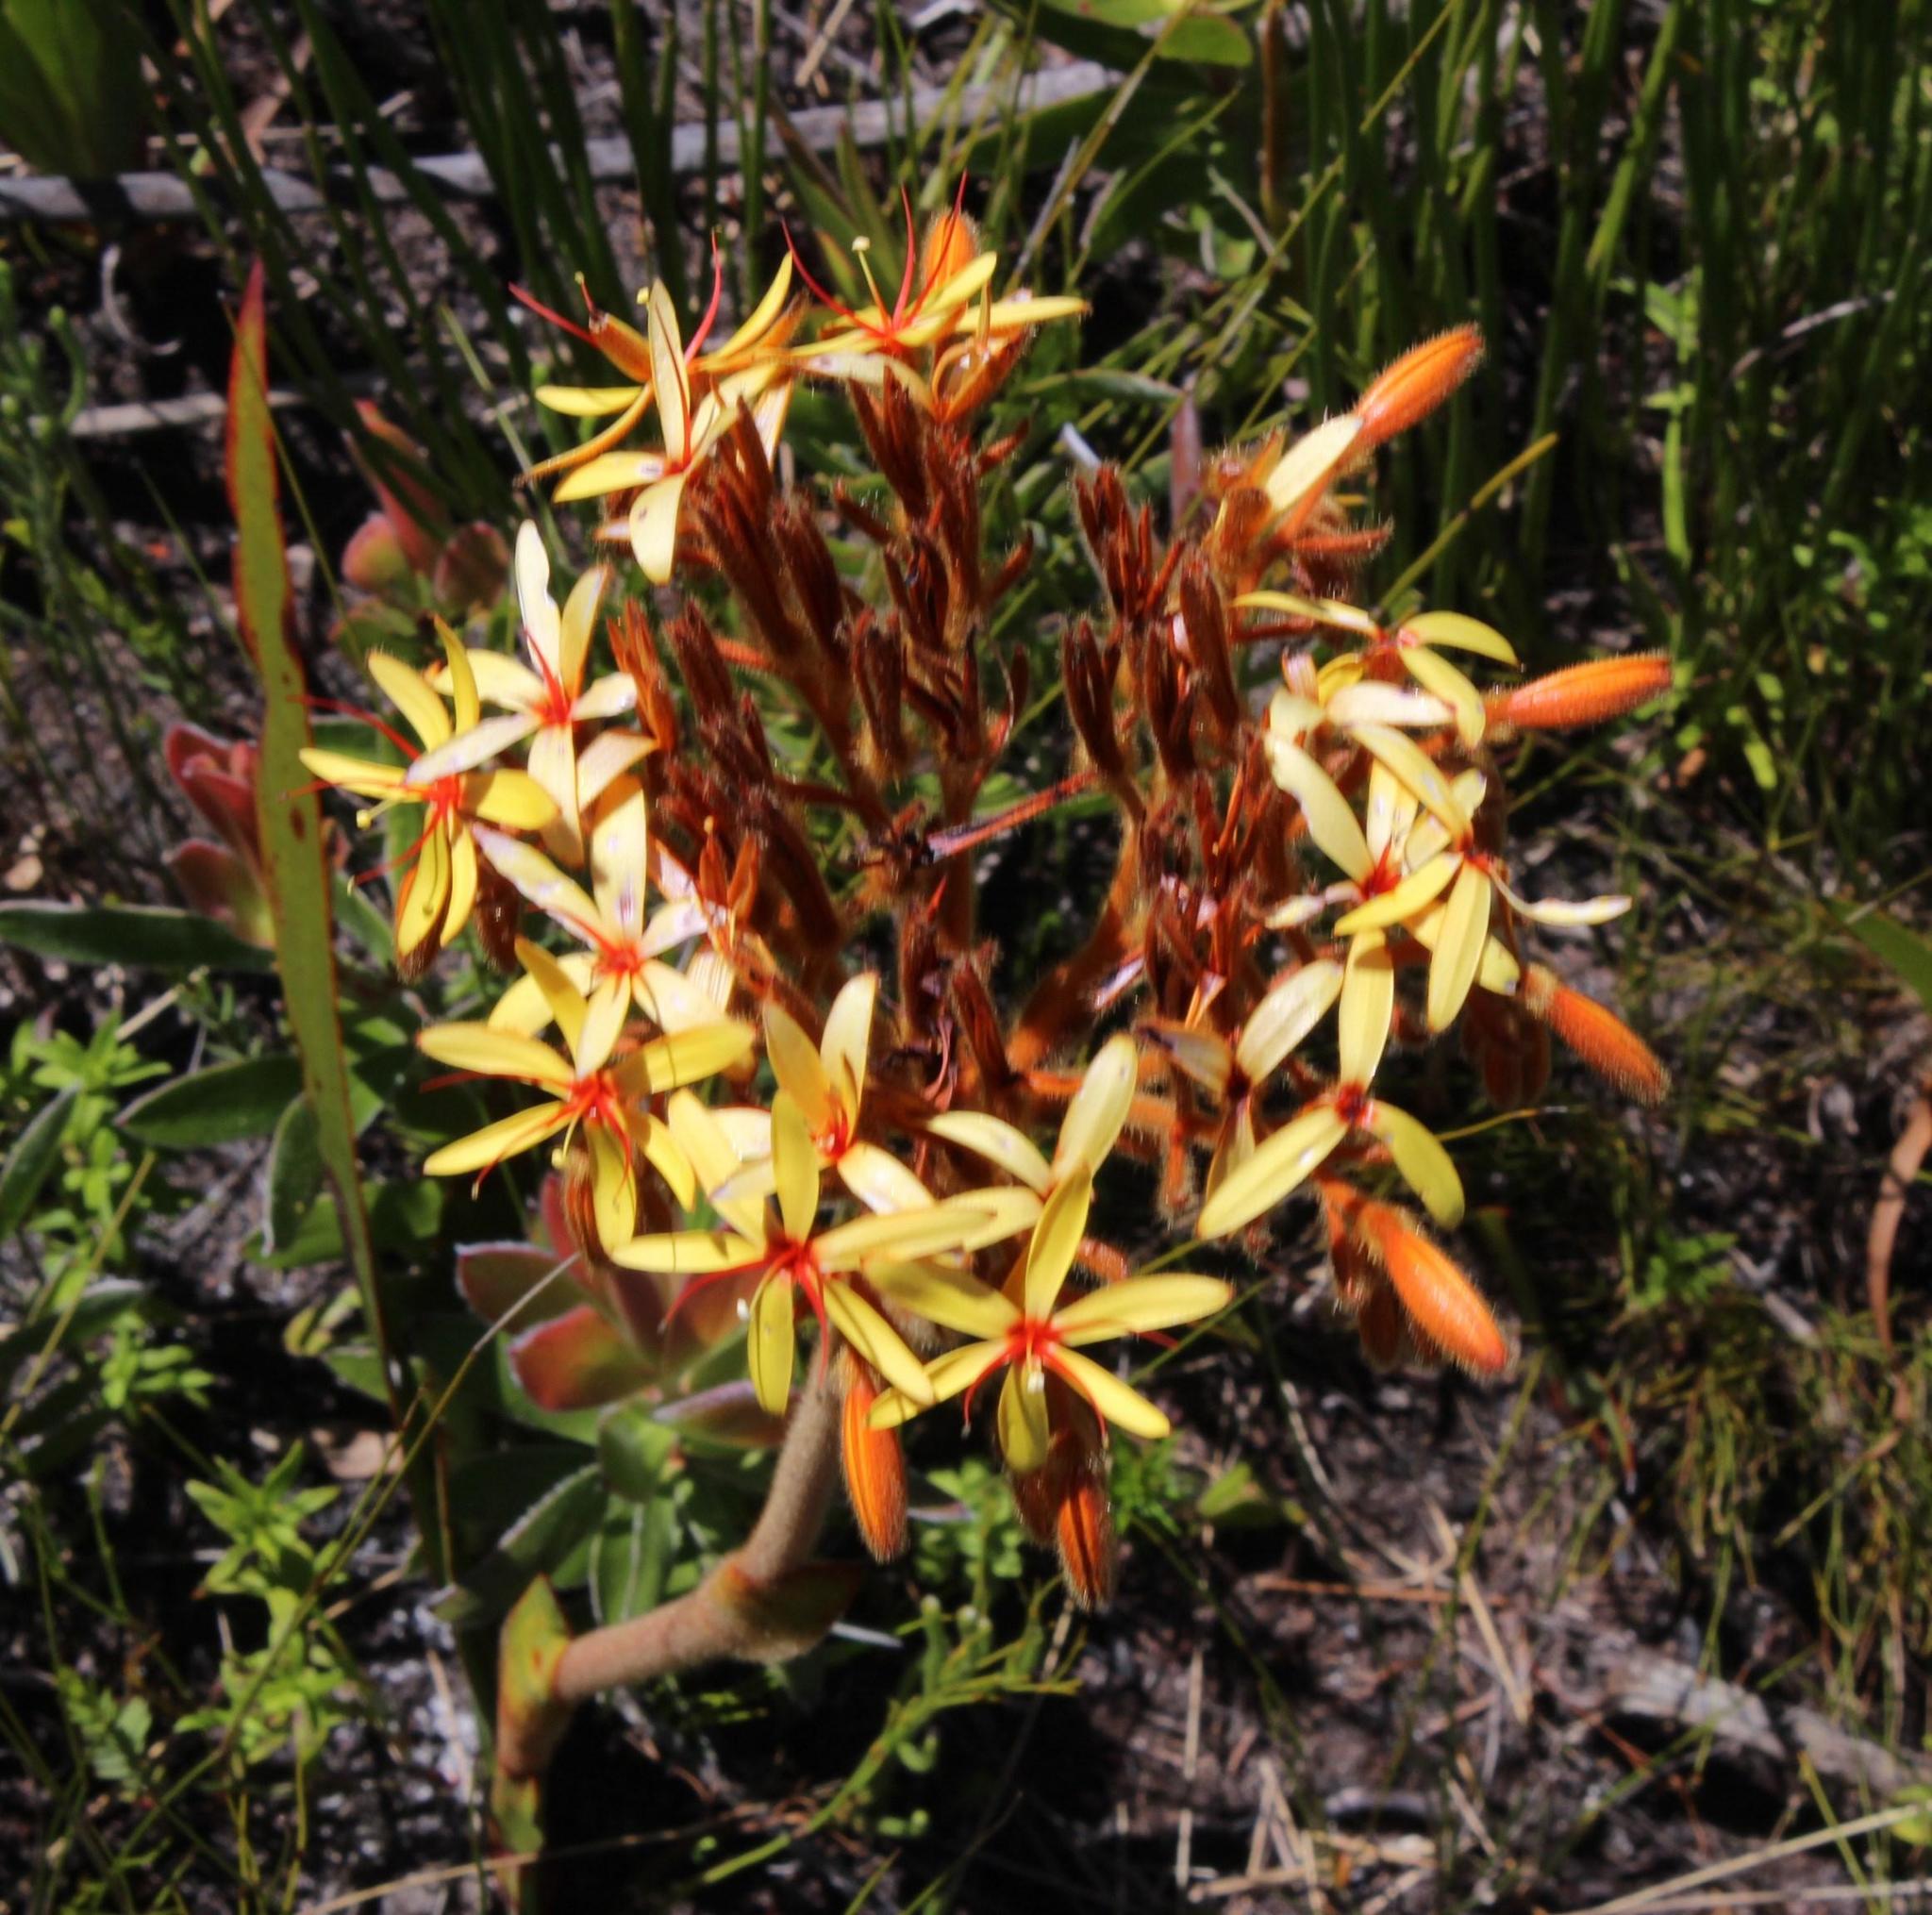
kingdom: Plantae
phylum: Tracheophyta
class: Liliopsida
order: Commelinales
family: Haemodoraceae
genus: Dilatris
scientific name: Dilatris viscosa
